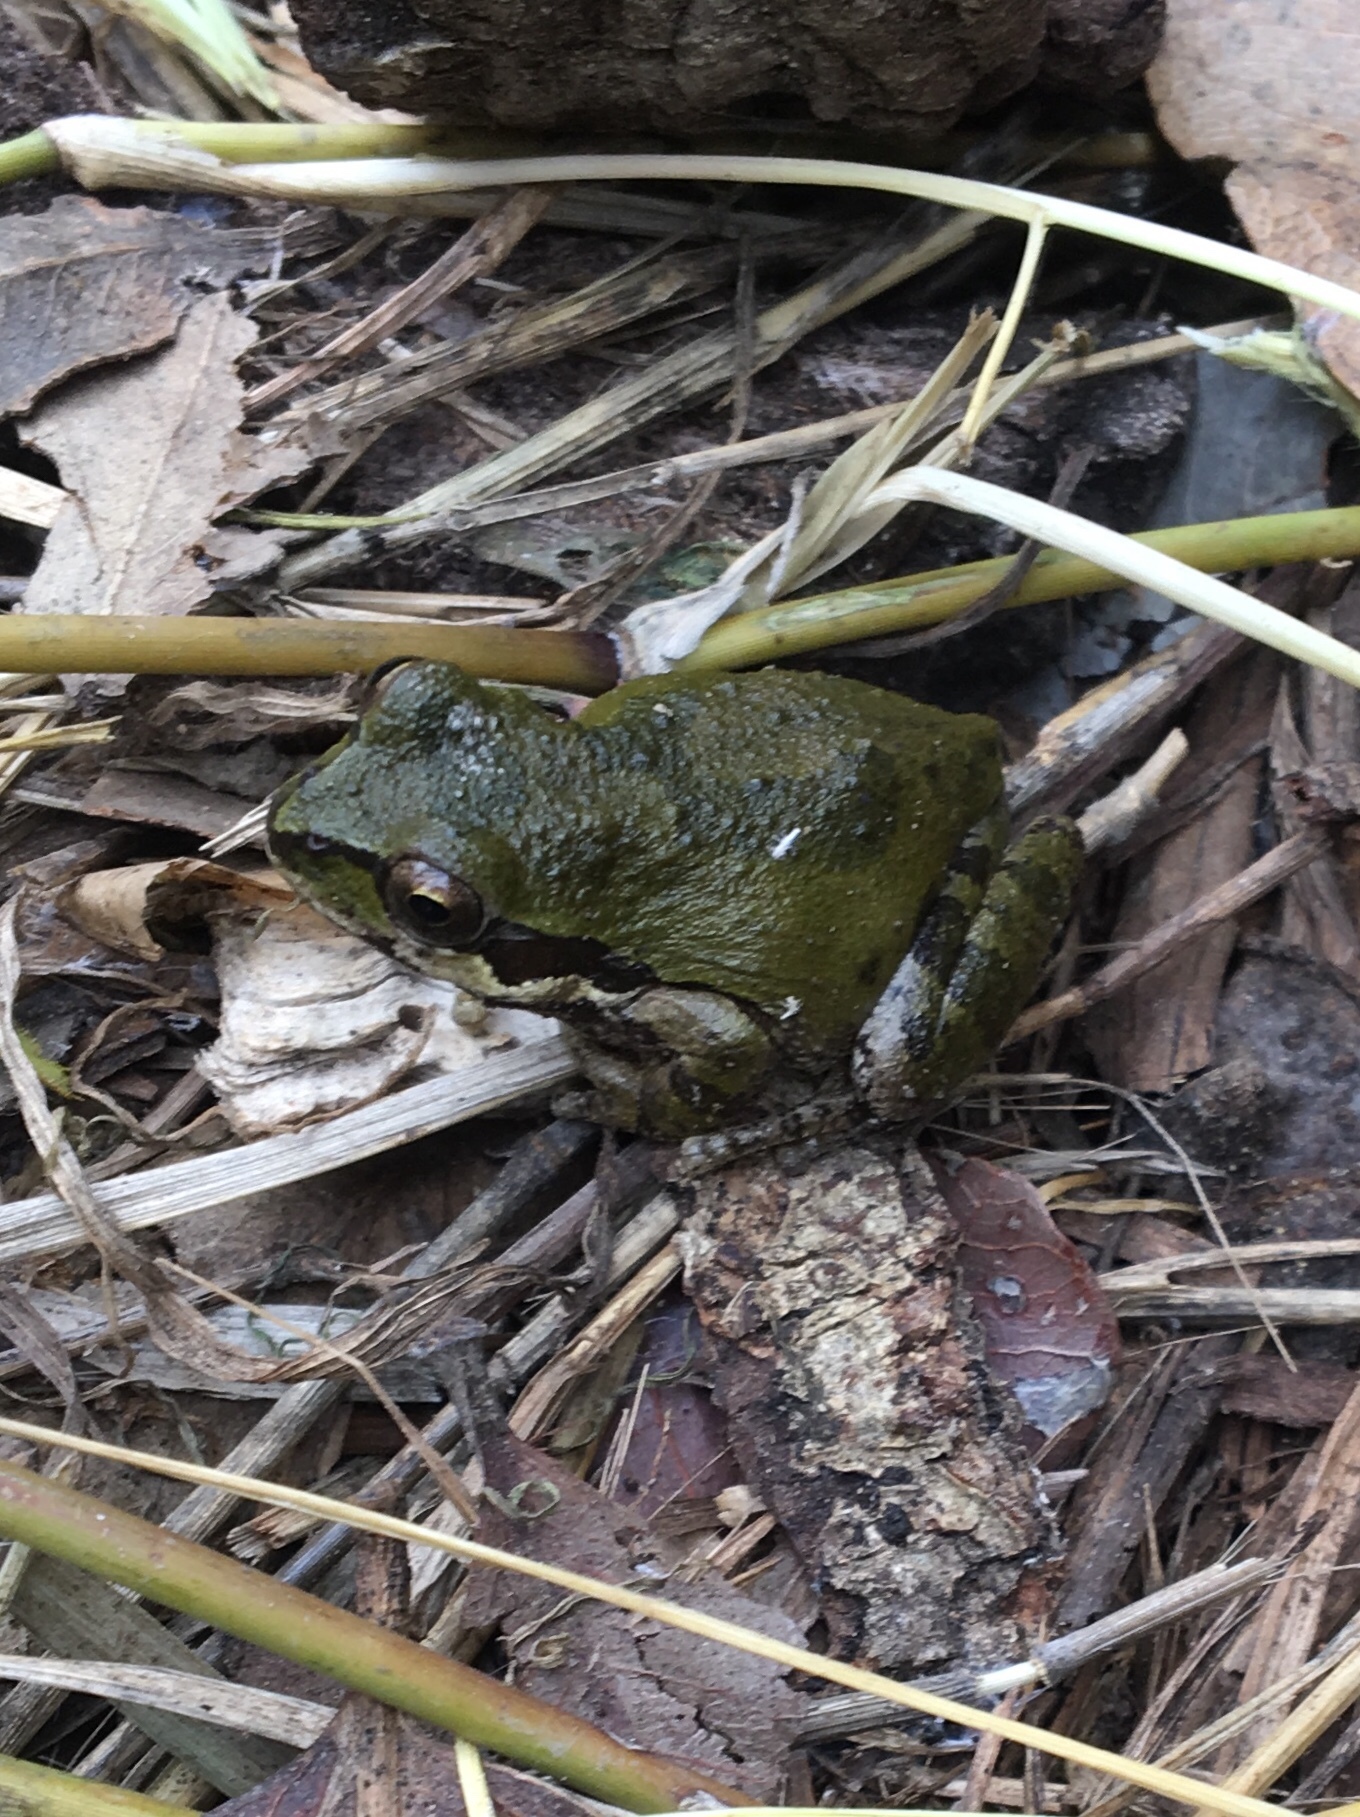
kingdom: Animalia
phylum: Chordata
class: Amphibia
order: Anura
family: Hylidae
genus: Pseudacris
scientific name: Pseudacris regilla
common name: Pacific chorus frog
